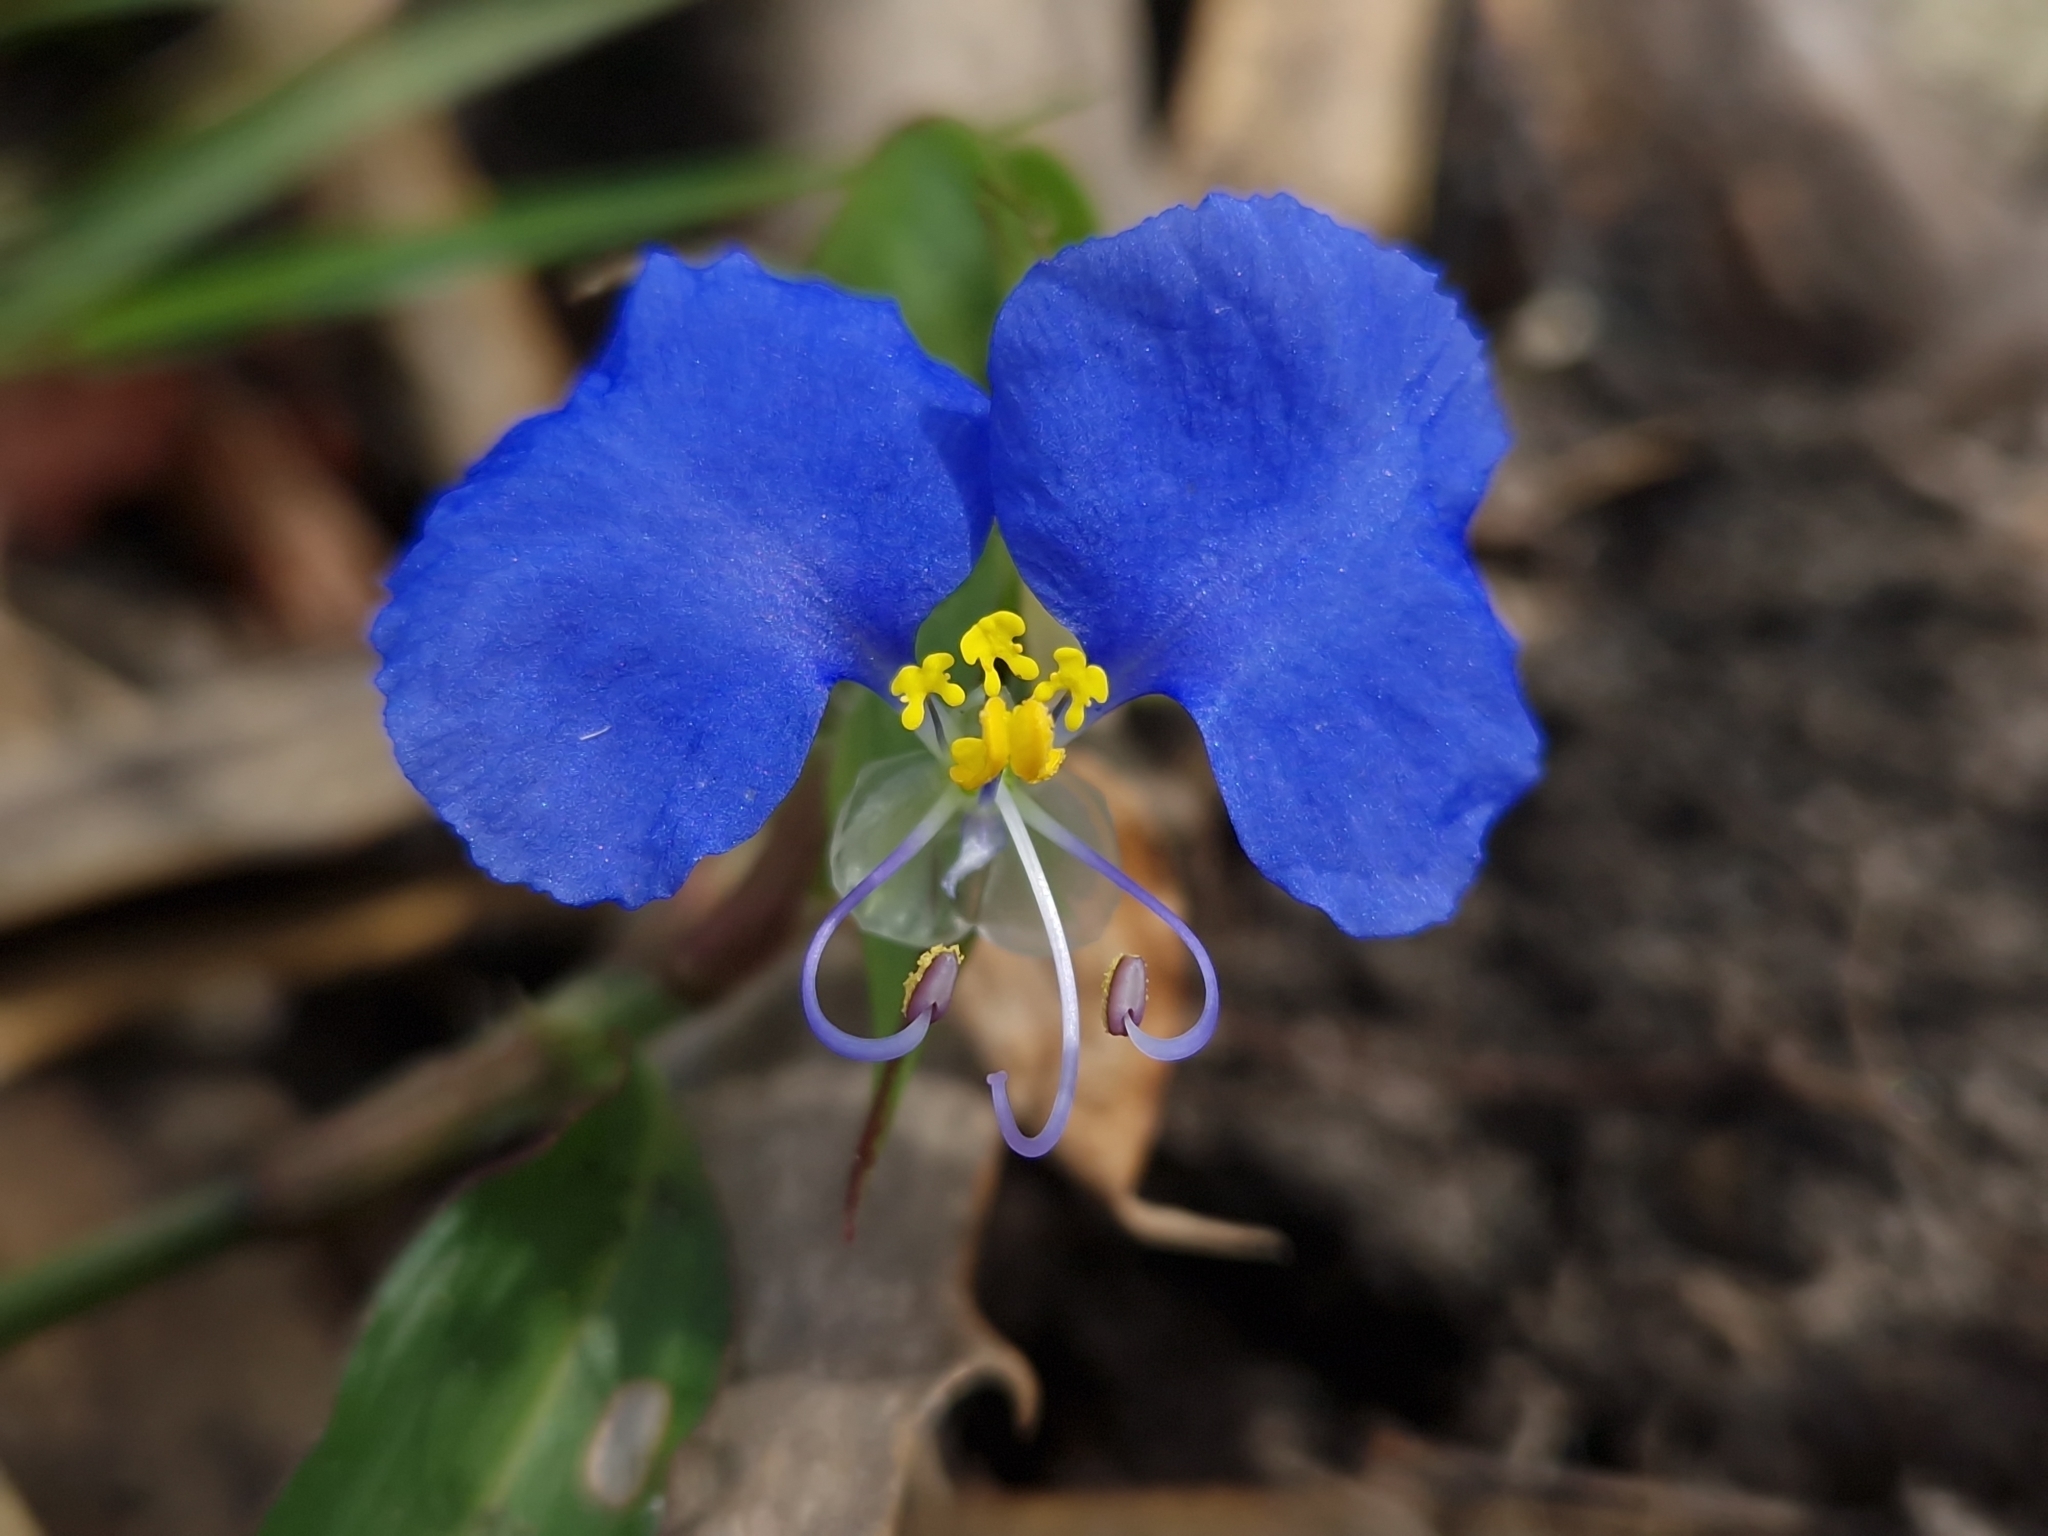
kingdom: Plantae
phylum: Tracheophyta
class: Liliopsida
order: Commelinales
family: Commelinaceae
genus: Commelina
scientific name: Commelina erecta
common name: Blousel blommetjie
